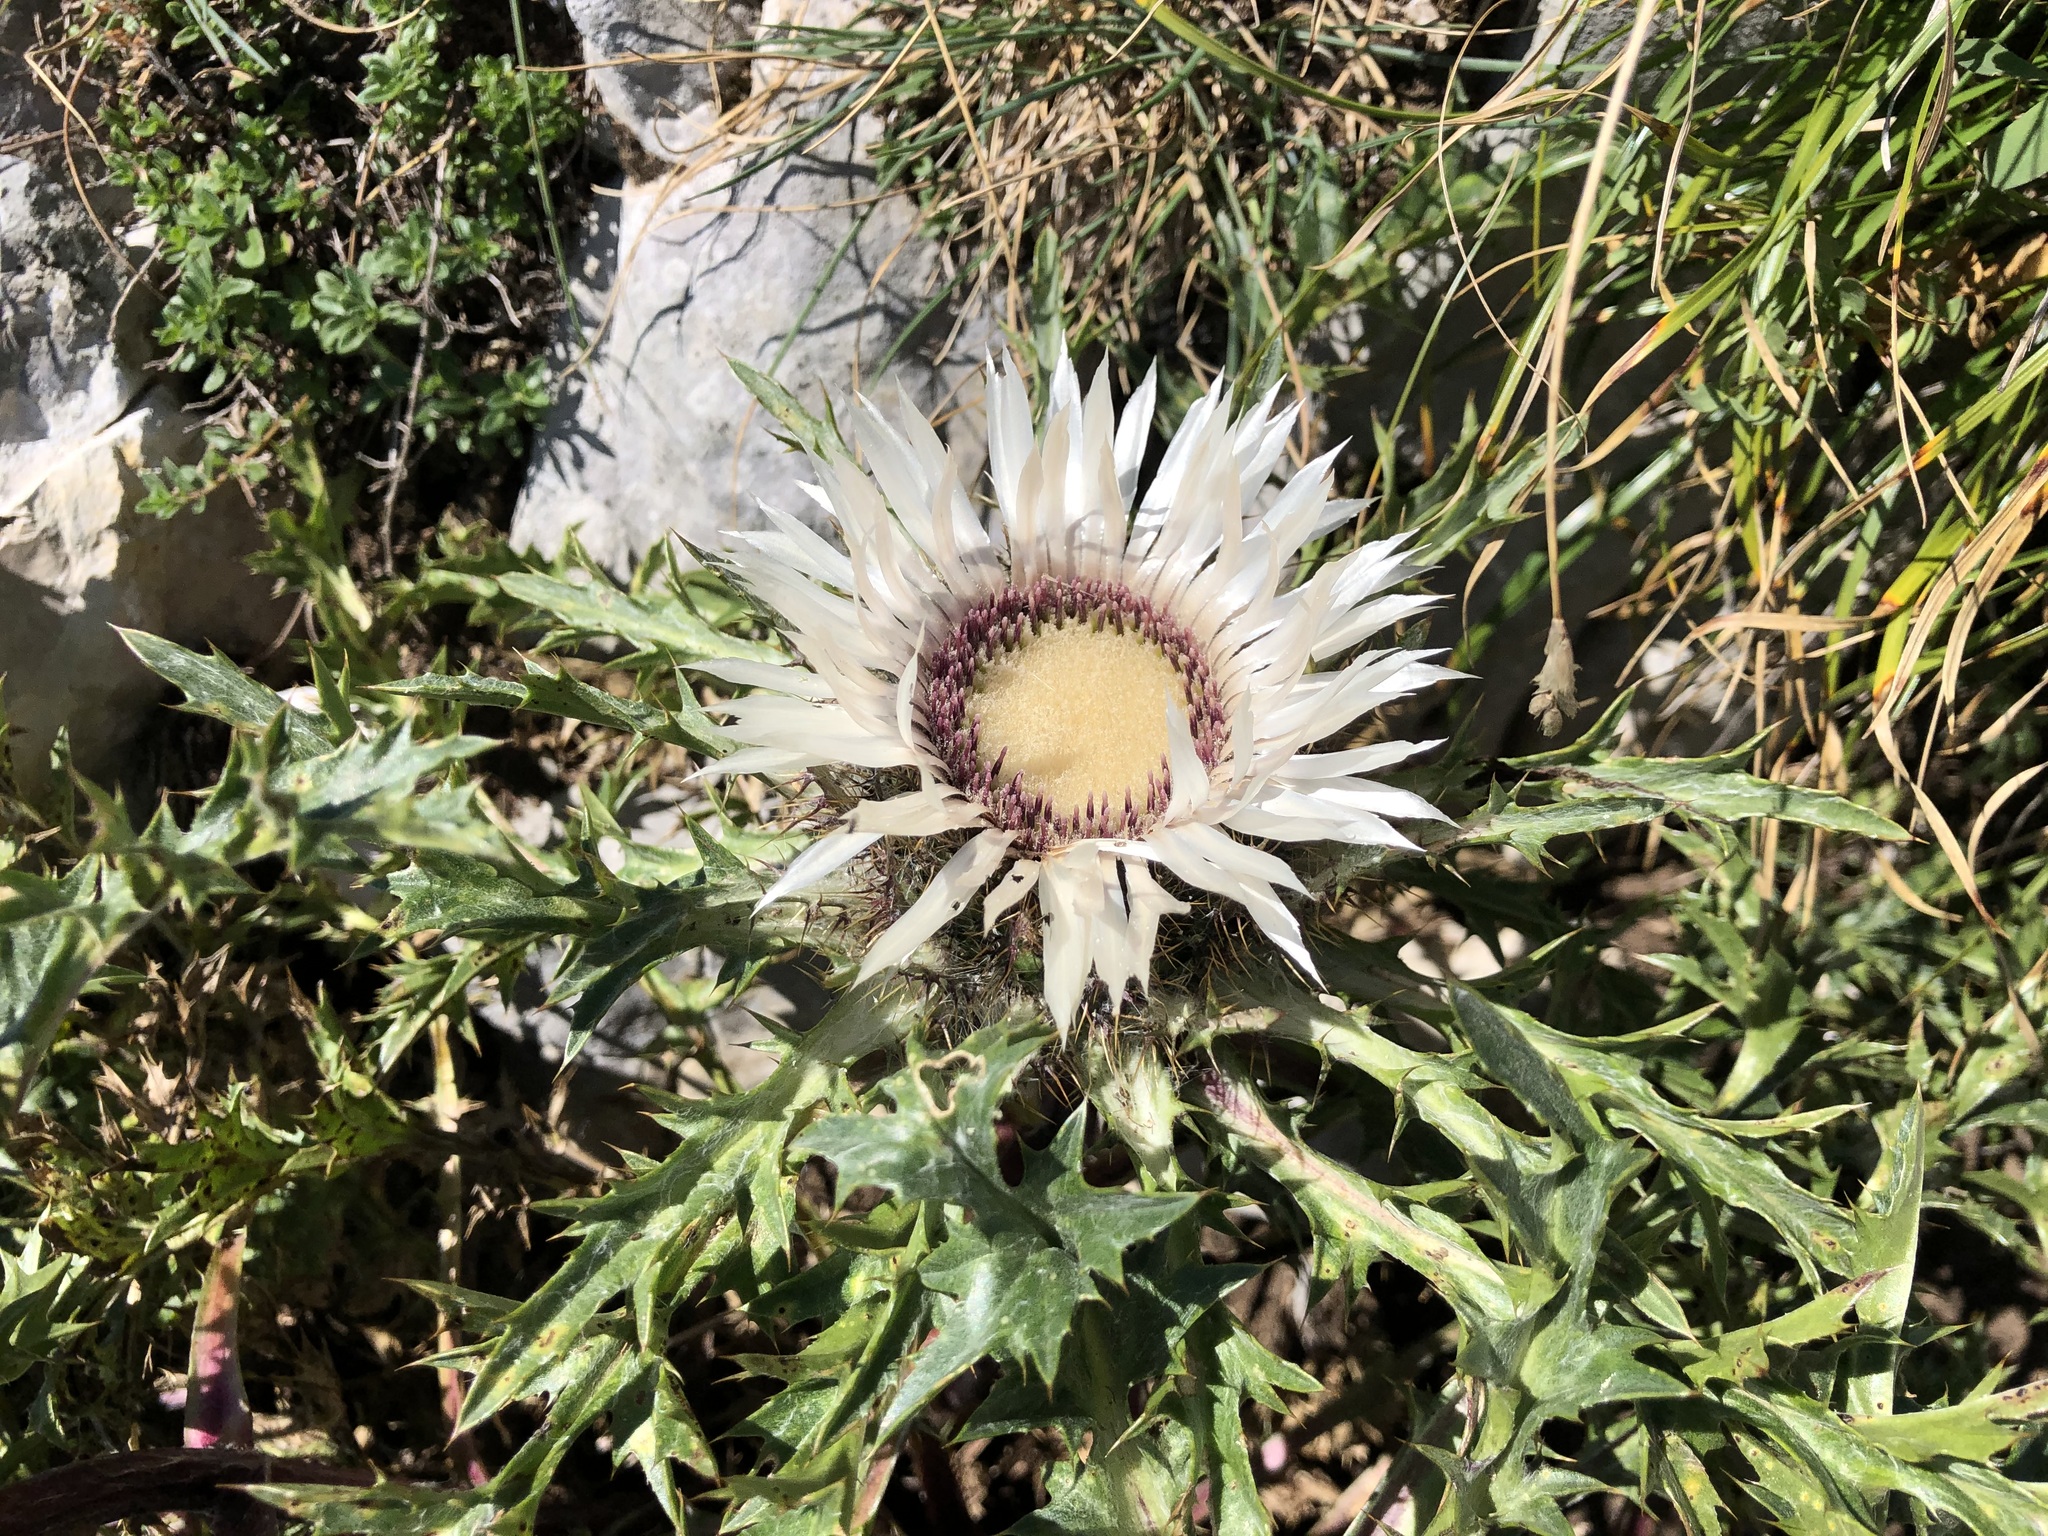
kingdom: Plantae
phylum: Tracheophyta
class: Magnoliopsida
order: Asterales
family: Asteraceae
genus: Carlina
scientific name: Carlina acaulis
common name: Stemless carline thistle
